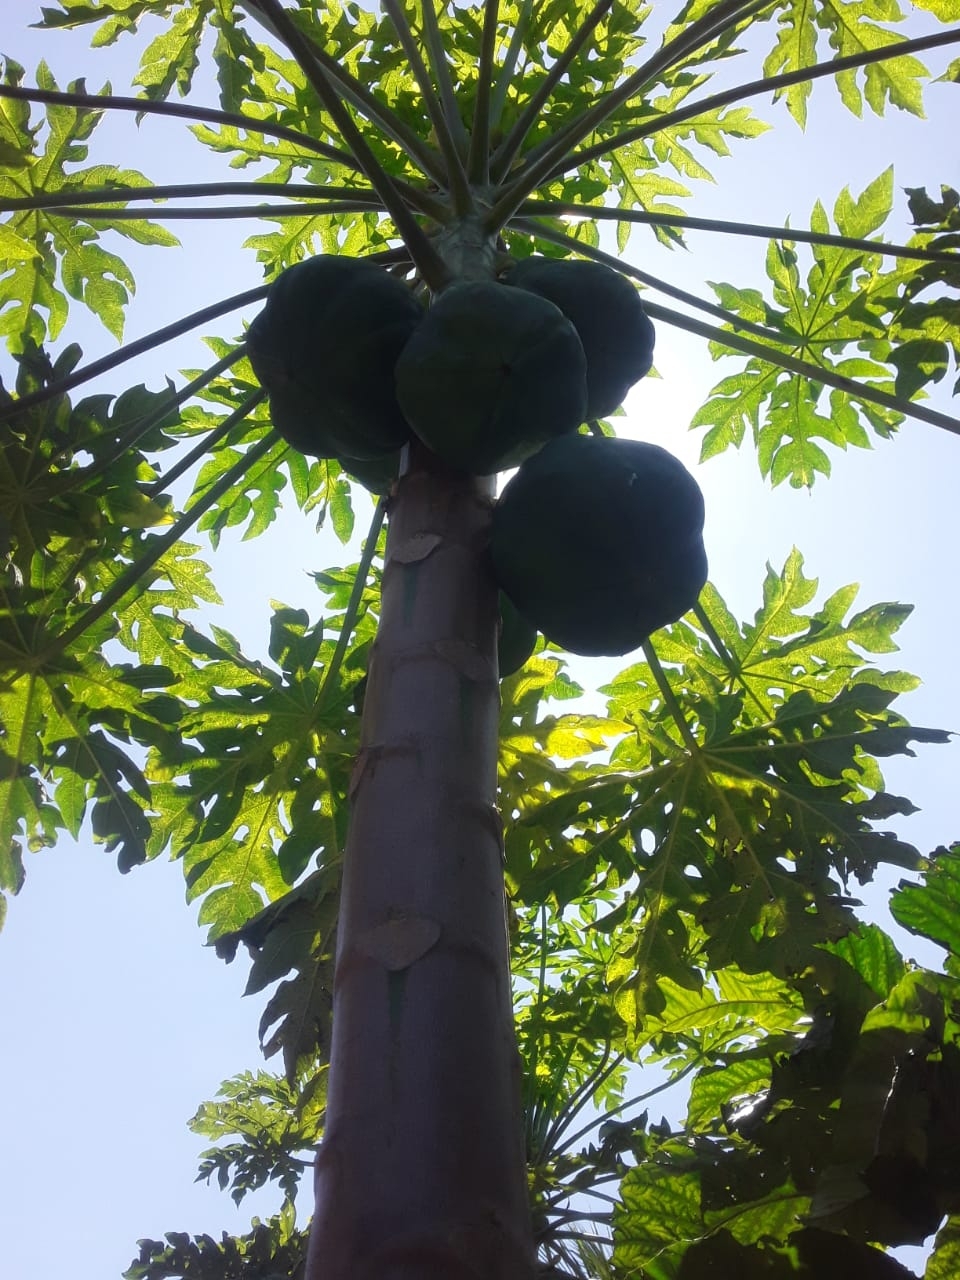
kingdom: Plantae
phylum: Tracheophyta
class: Magnoliopsida
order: Brassicales
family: Caricaceae
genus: Carica
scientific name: Carica papaya
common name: Papaya
